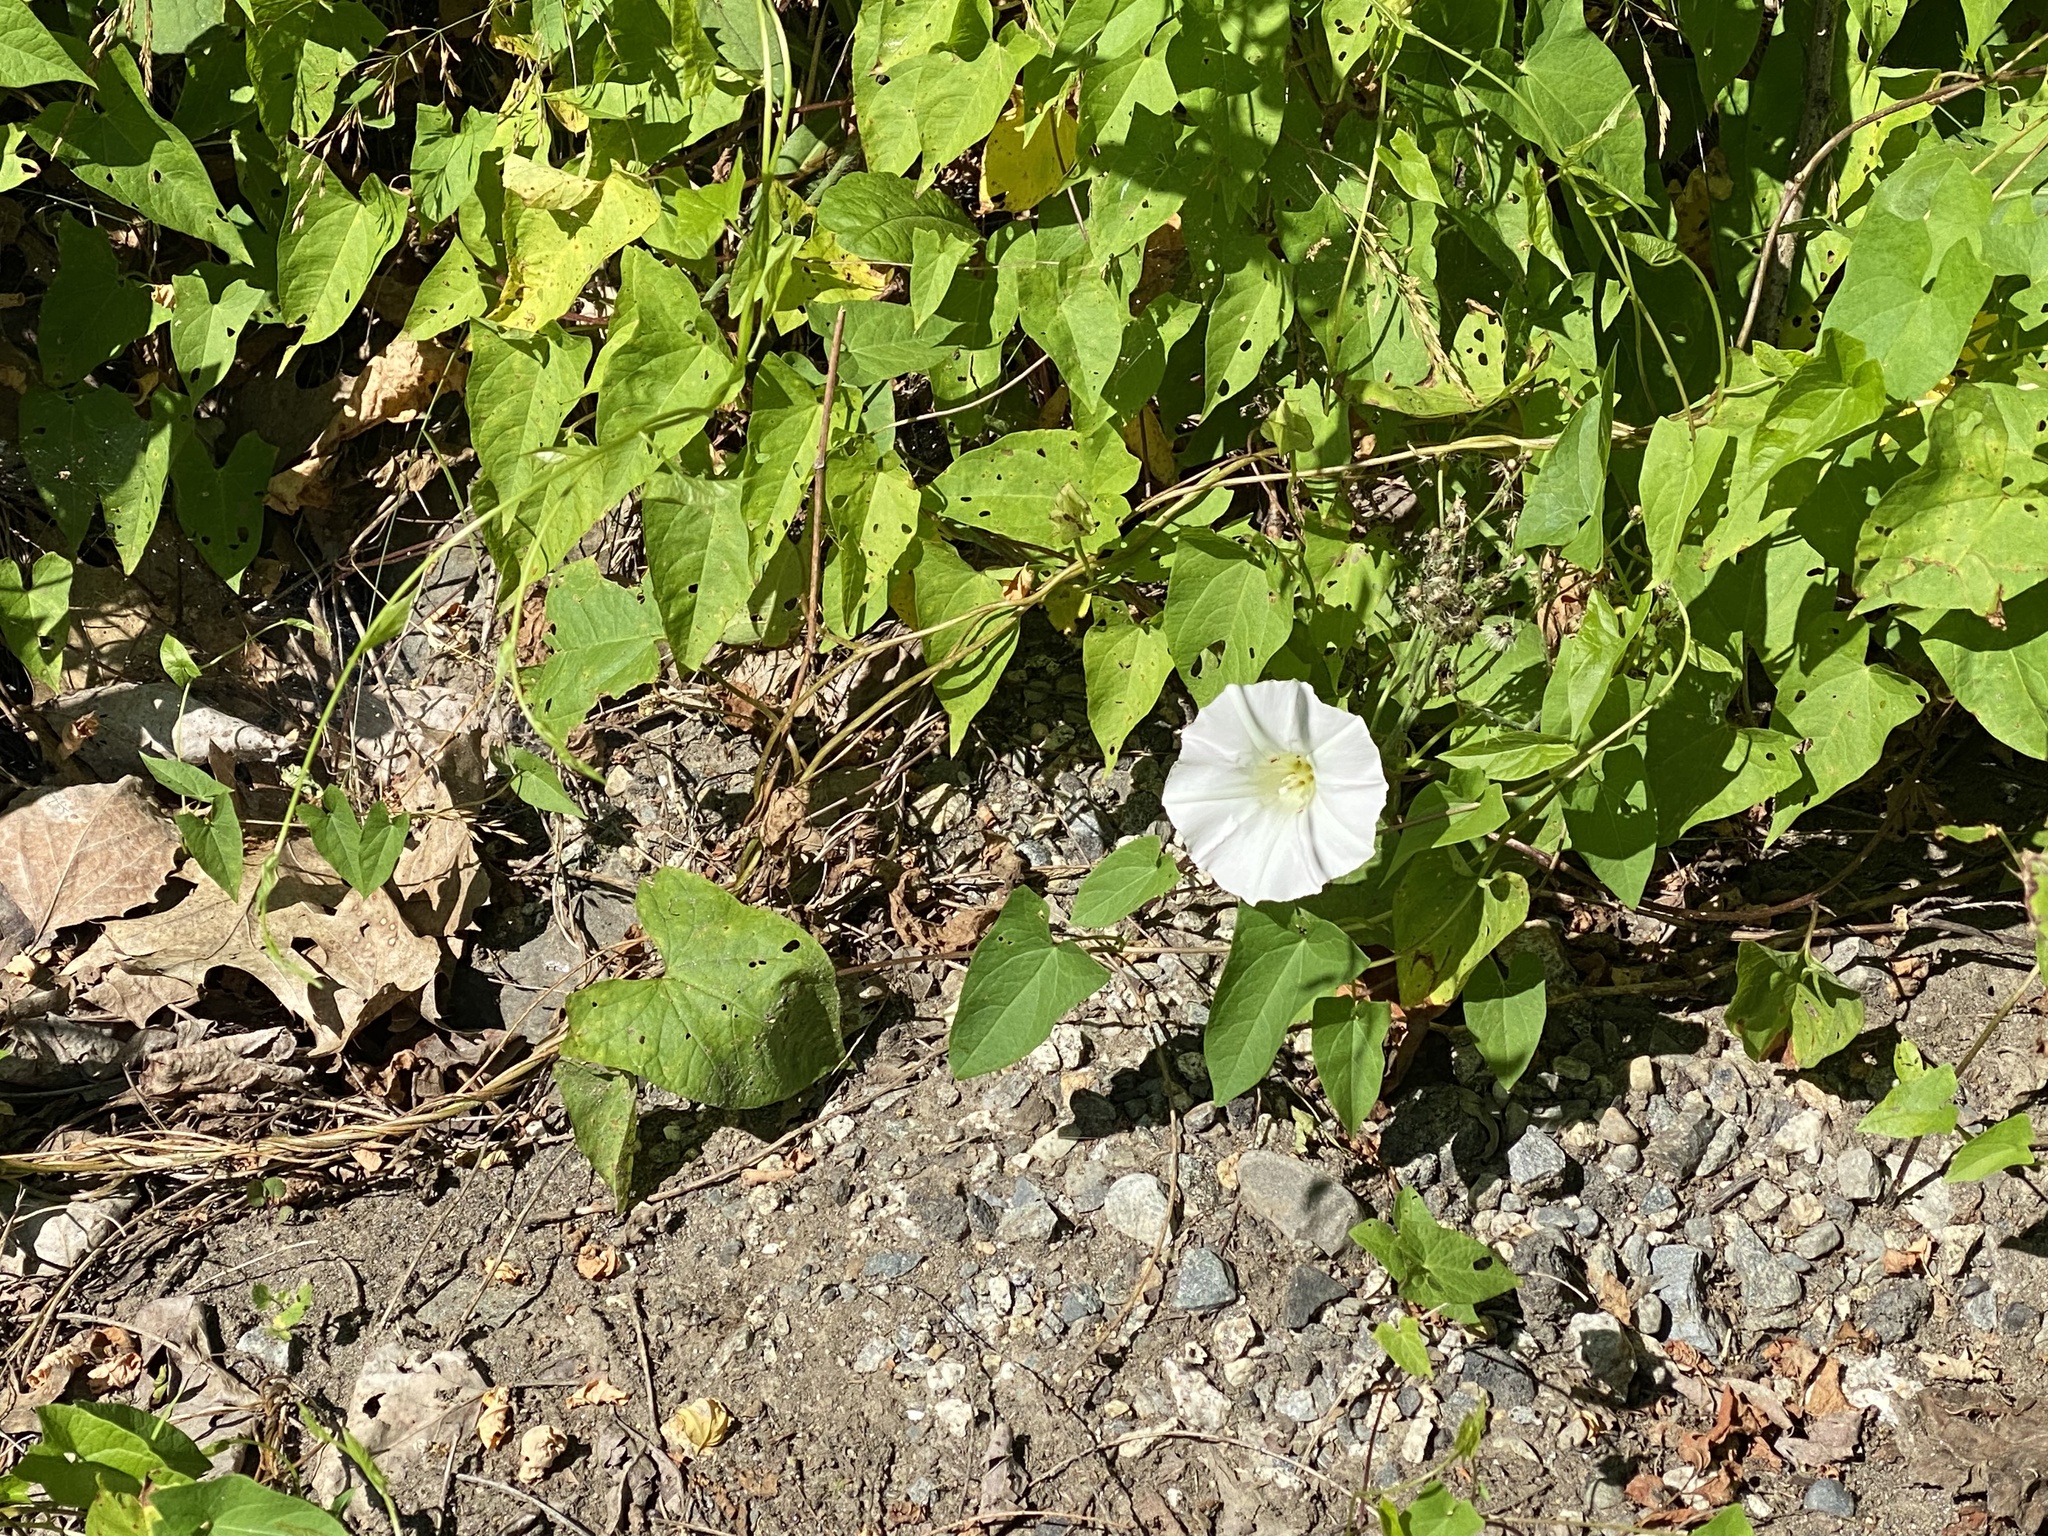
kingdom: Plantae
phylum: Tracheophyta
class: Magnoliopsida
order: Solanales
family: Convolvulaceae
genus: Calystegia
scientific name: Calystegia sepium
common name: Hedge bindweed
